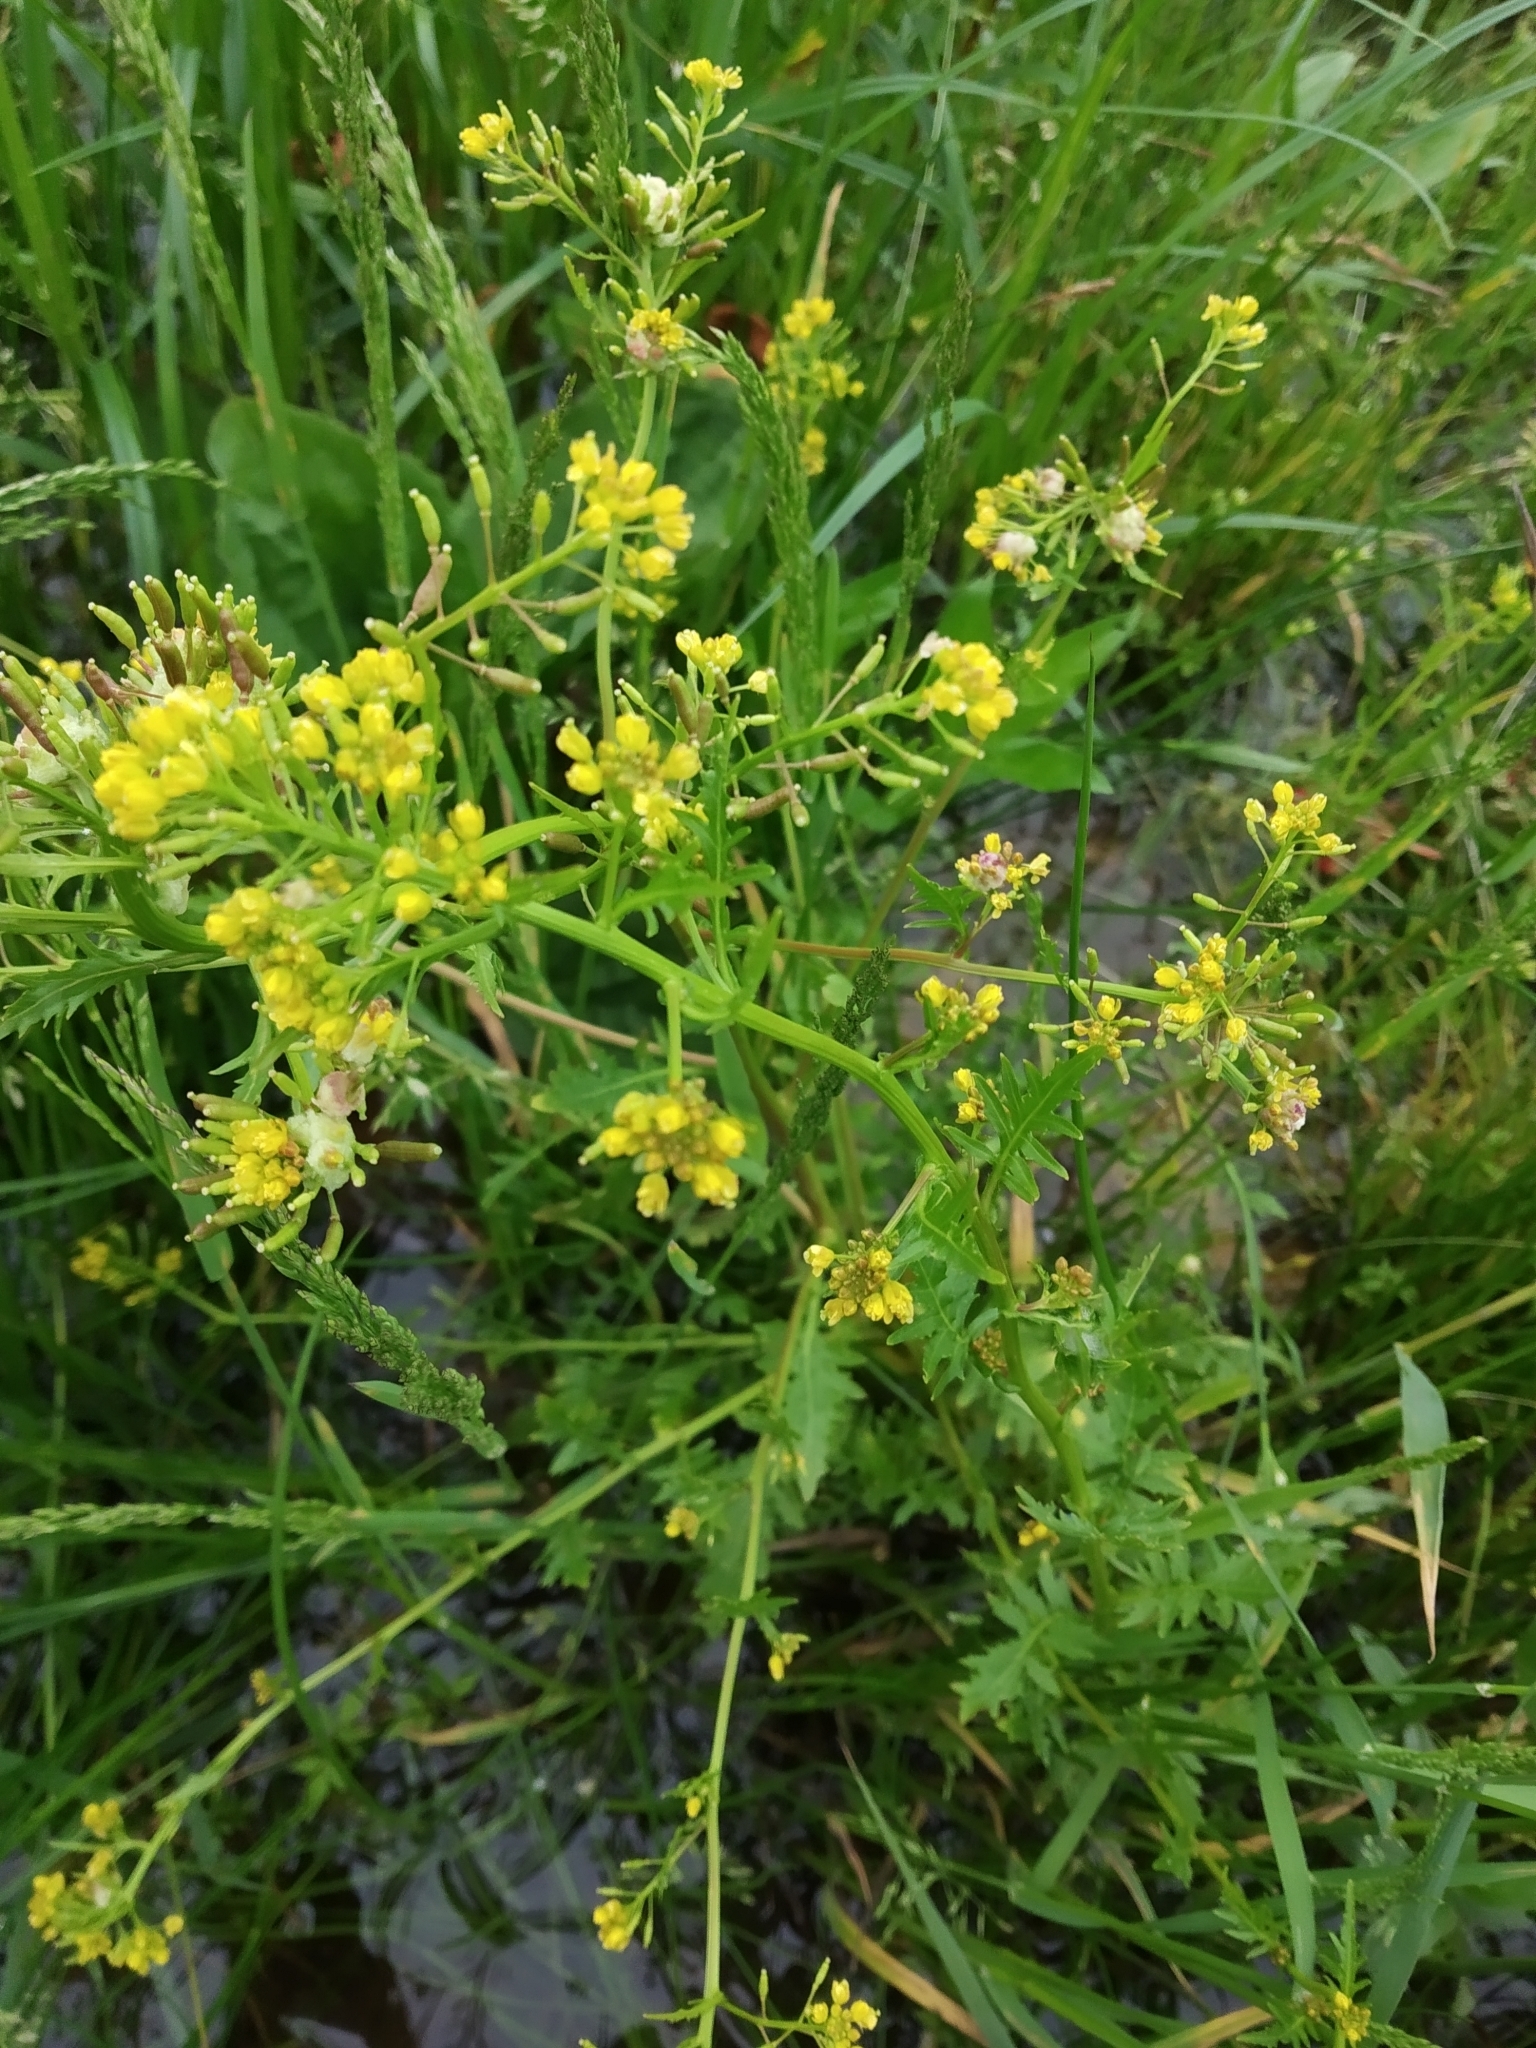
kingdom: Plantae
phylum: Tracheophyta
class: Magnoliopsida
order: Brassicales
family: Brassicaceae
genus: Rorippa
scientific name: Rorippa palustris
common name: Marsh yellow-cress
